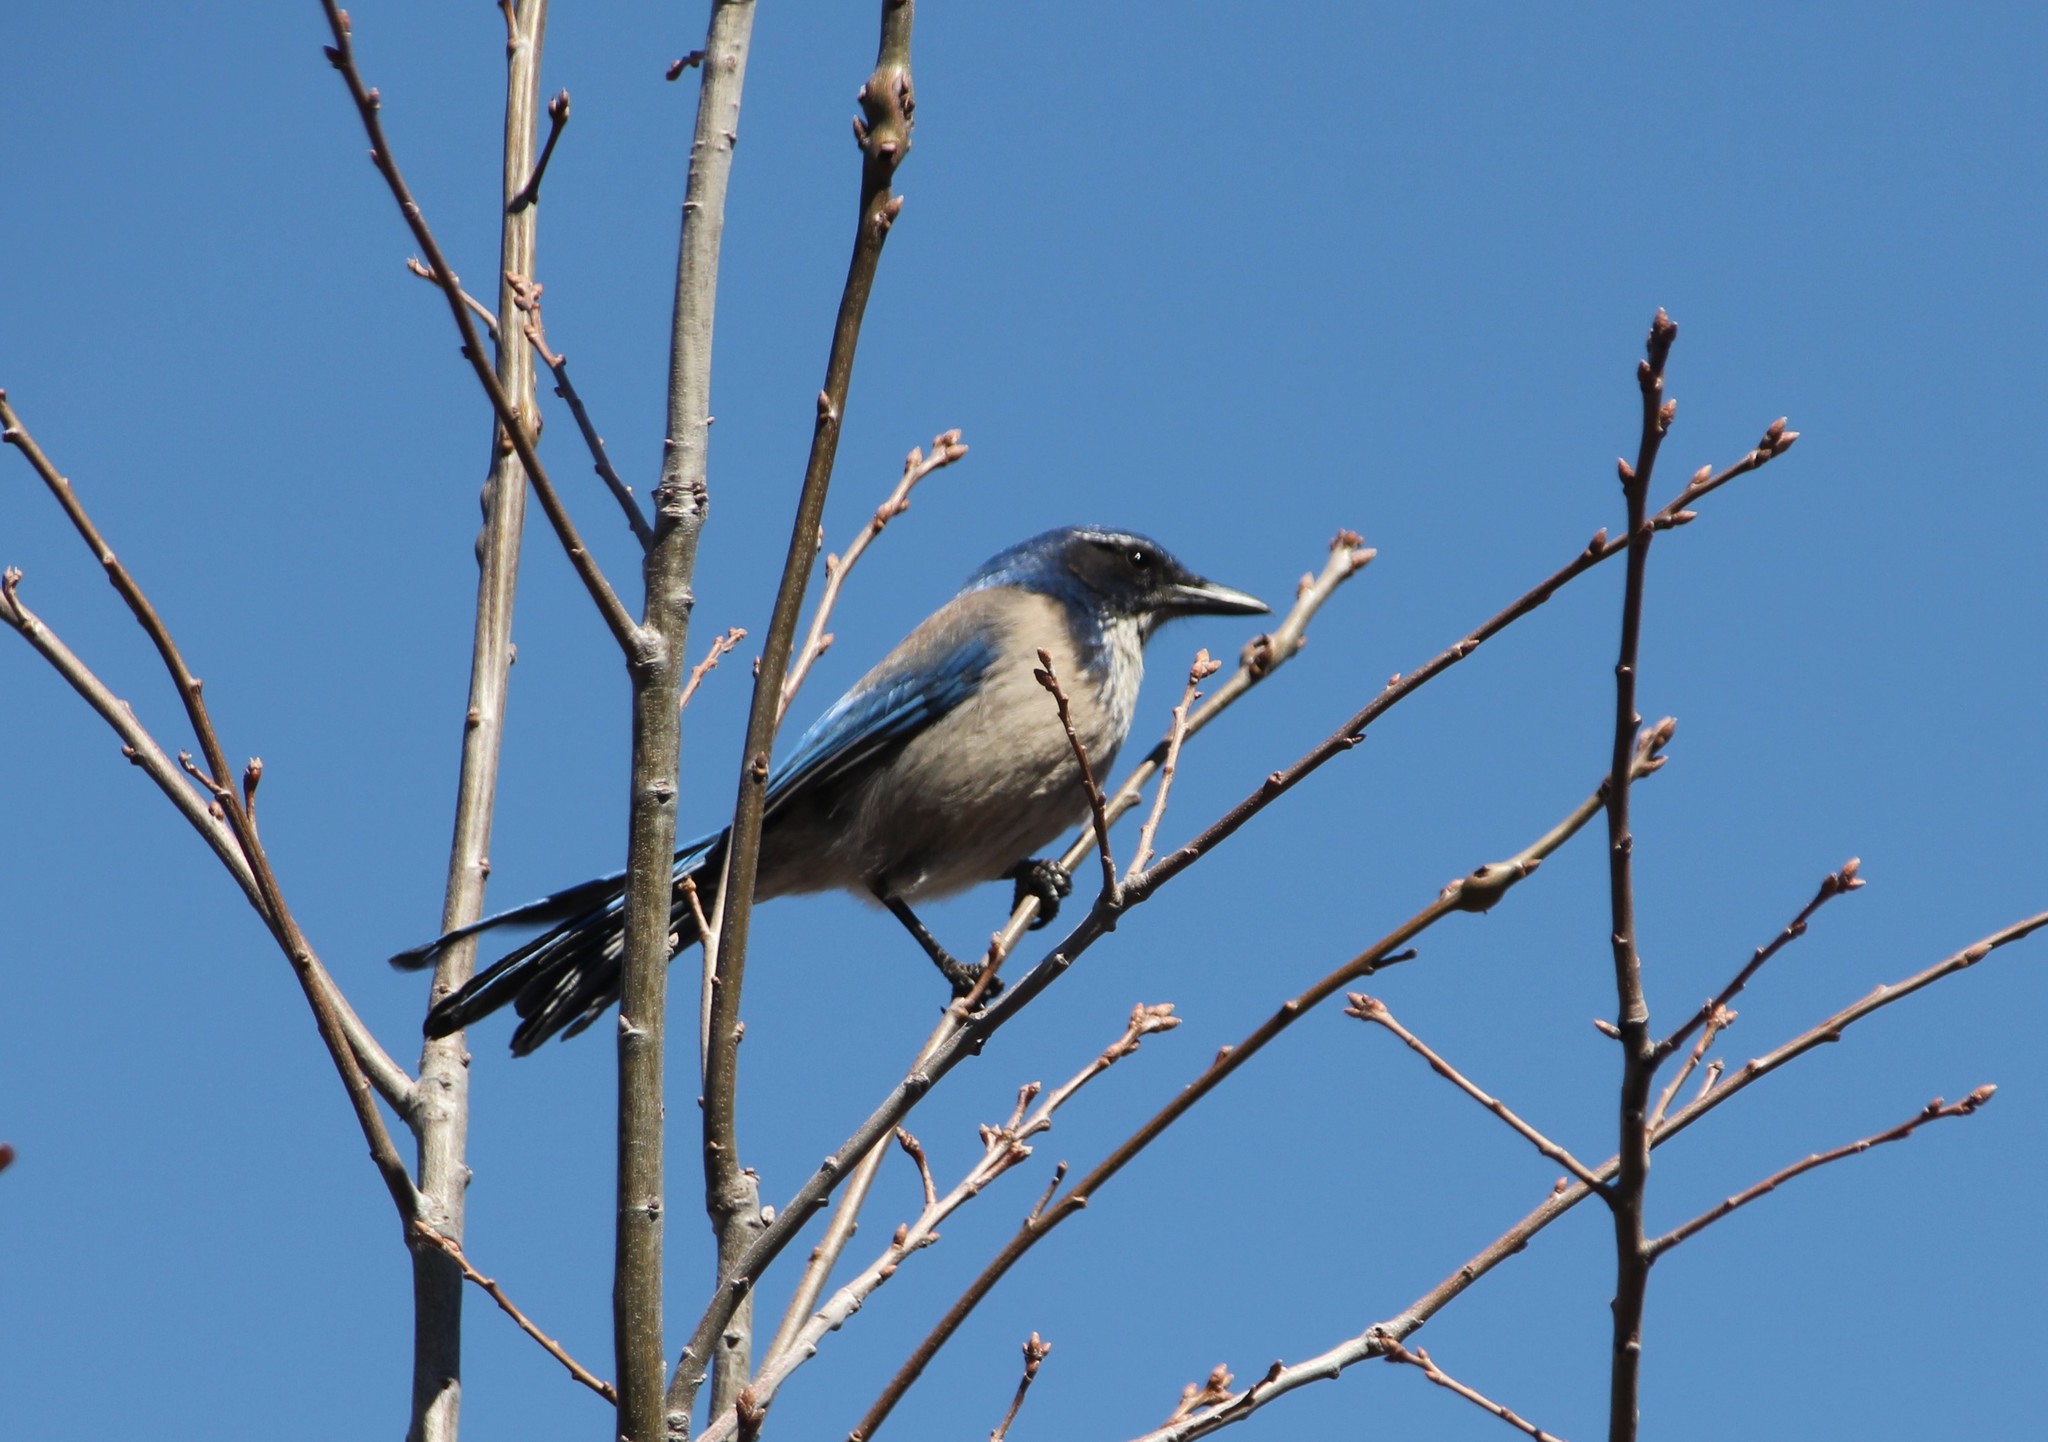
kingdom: Animalia
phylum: Chordata
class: Aves
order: Passeriformes
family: Corvidae
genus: Aphelocoma
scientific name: Aphelocoma californica
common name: California scrub-jay
